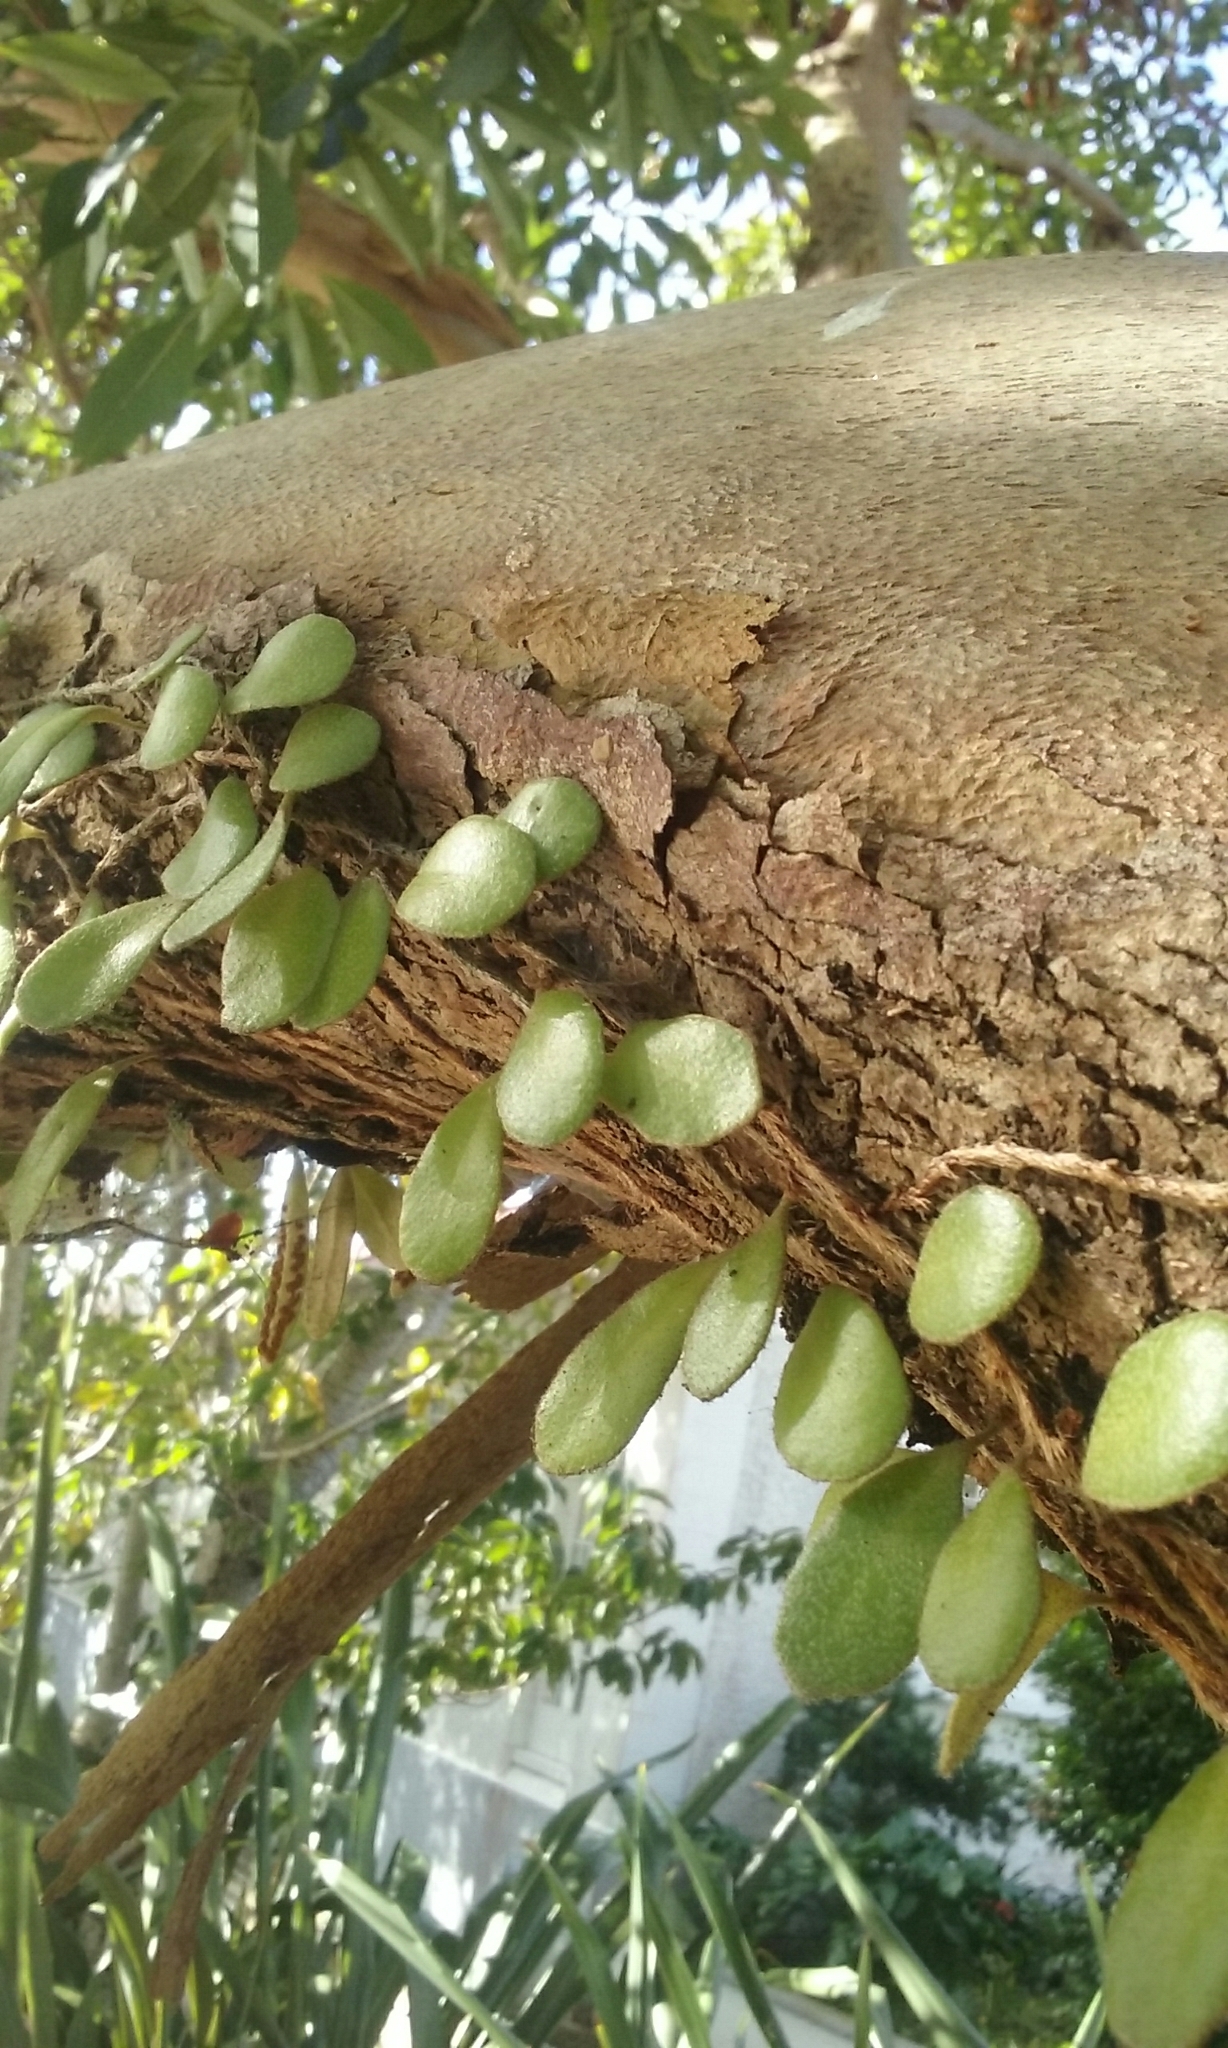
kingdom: Plantae
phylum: Tracheophyta
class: Polypodiopsida
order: Polypodiales
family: Polypodiaceae
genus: Pyrrosia
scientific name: Pyrrosia eleagnifolia
